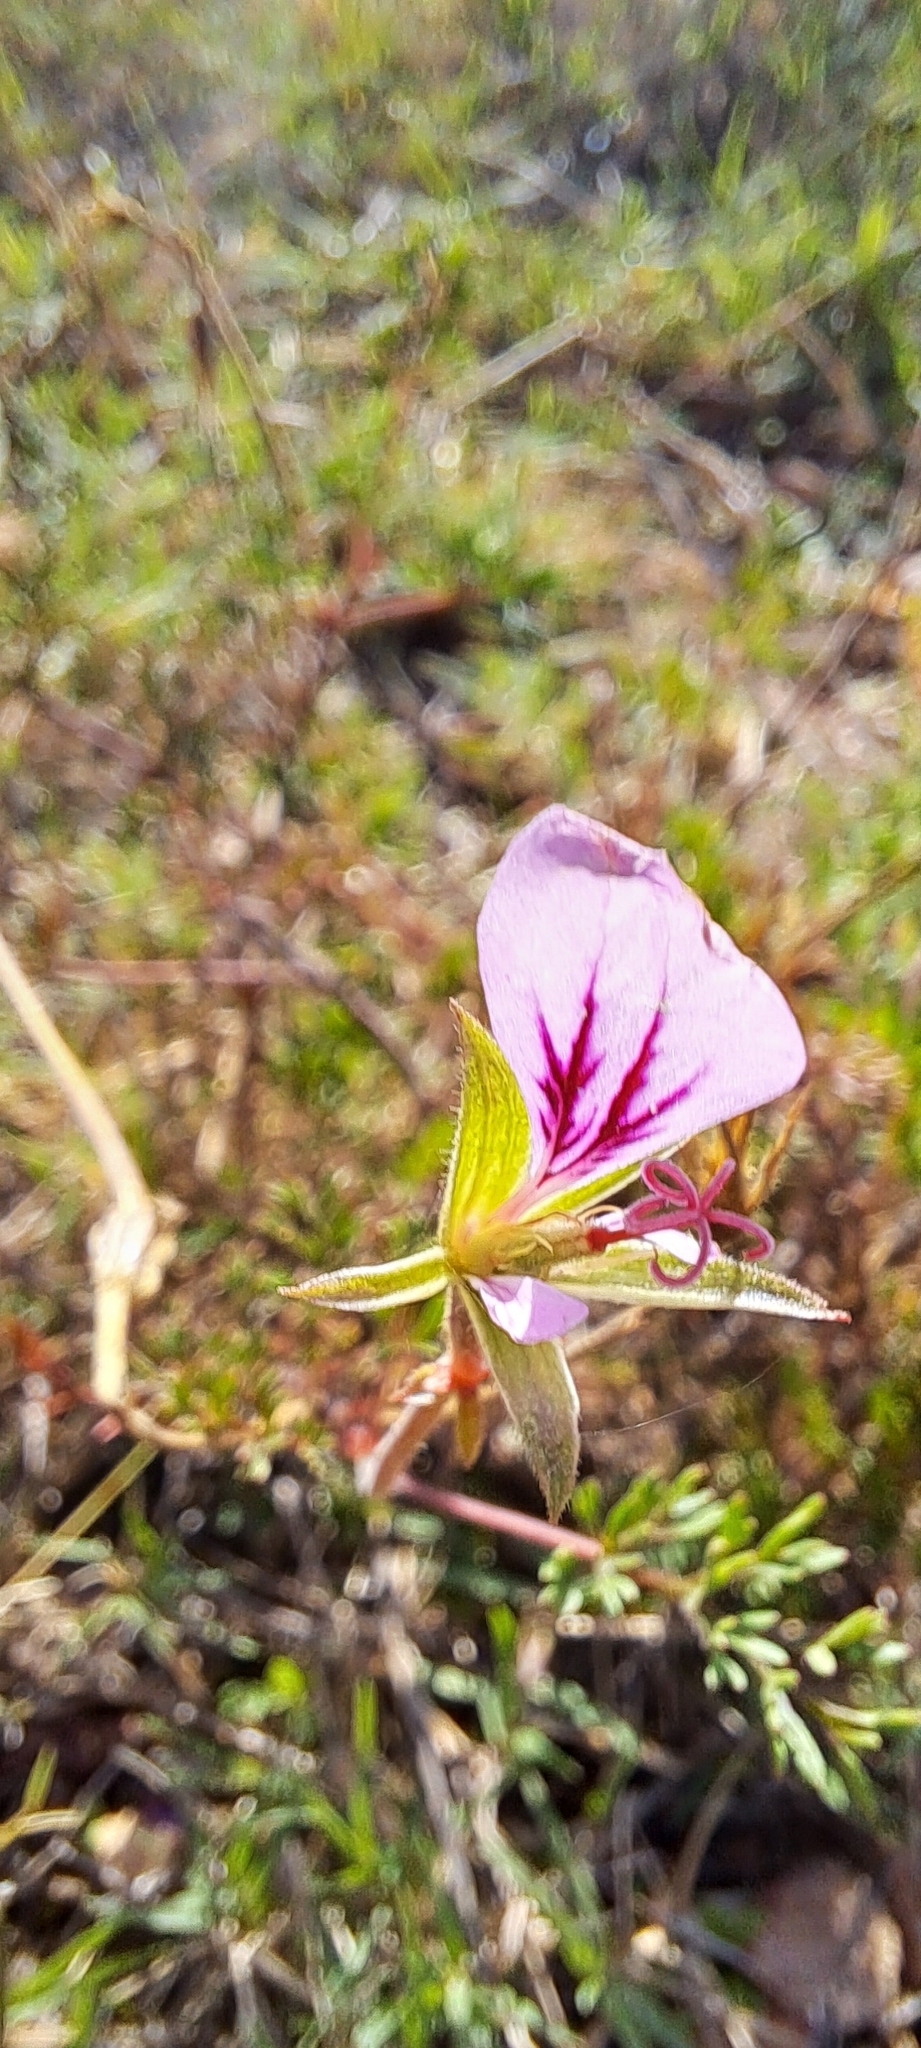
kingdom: Plantae
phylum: Tracheophyta
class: Magnoliopsida
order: Geraniales
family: Geraniaceae
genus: Pelargonium
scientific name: Pelargonium myrrhifolium
